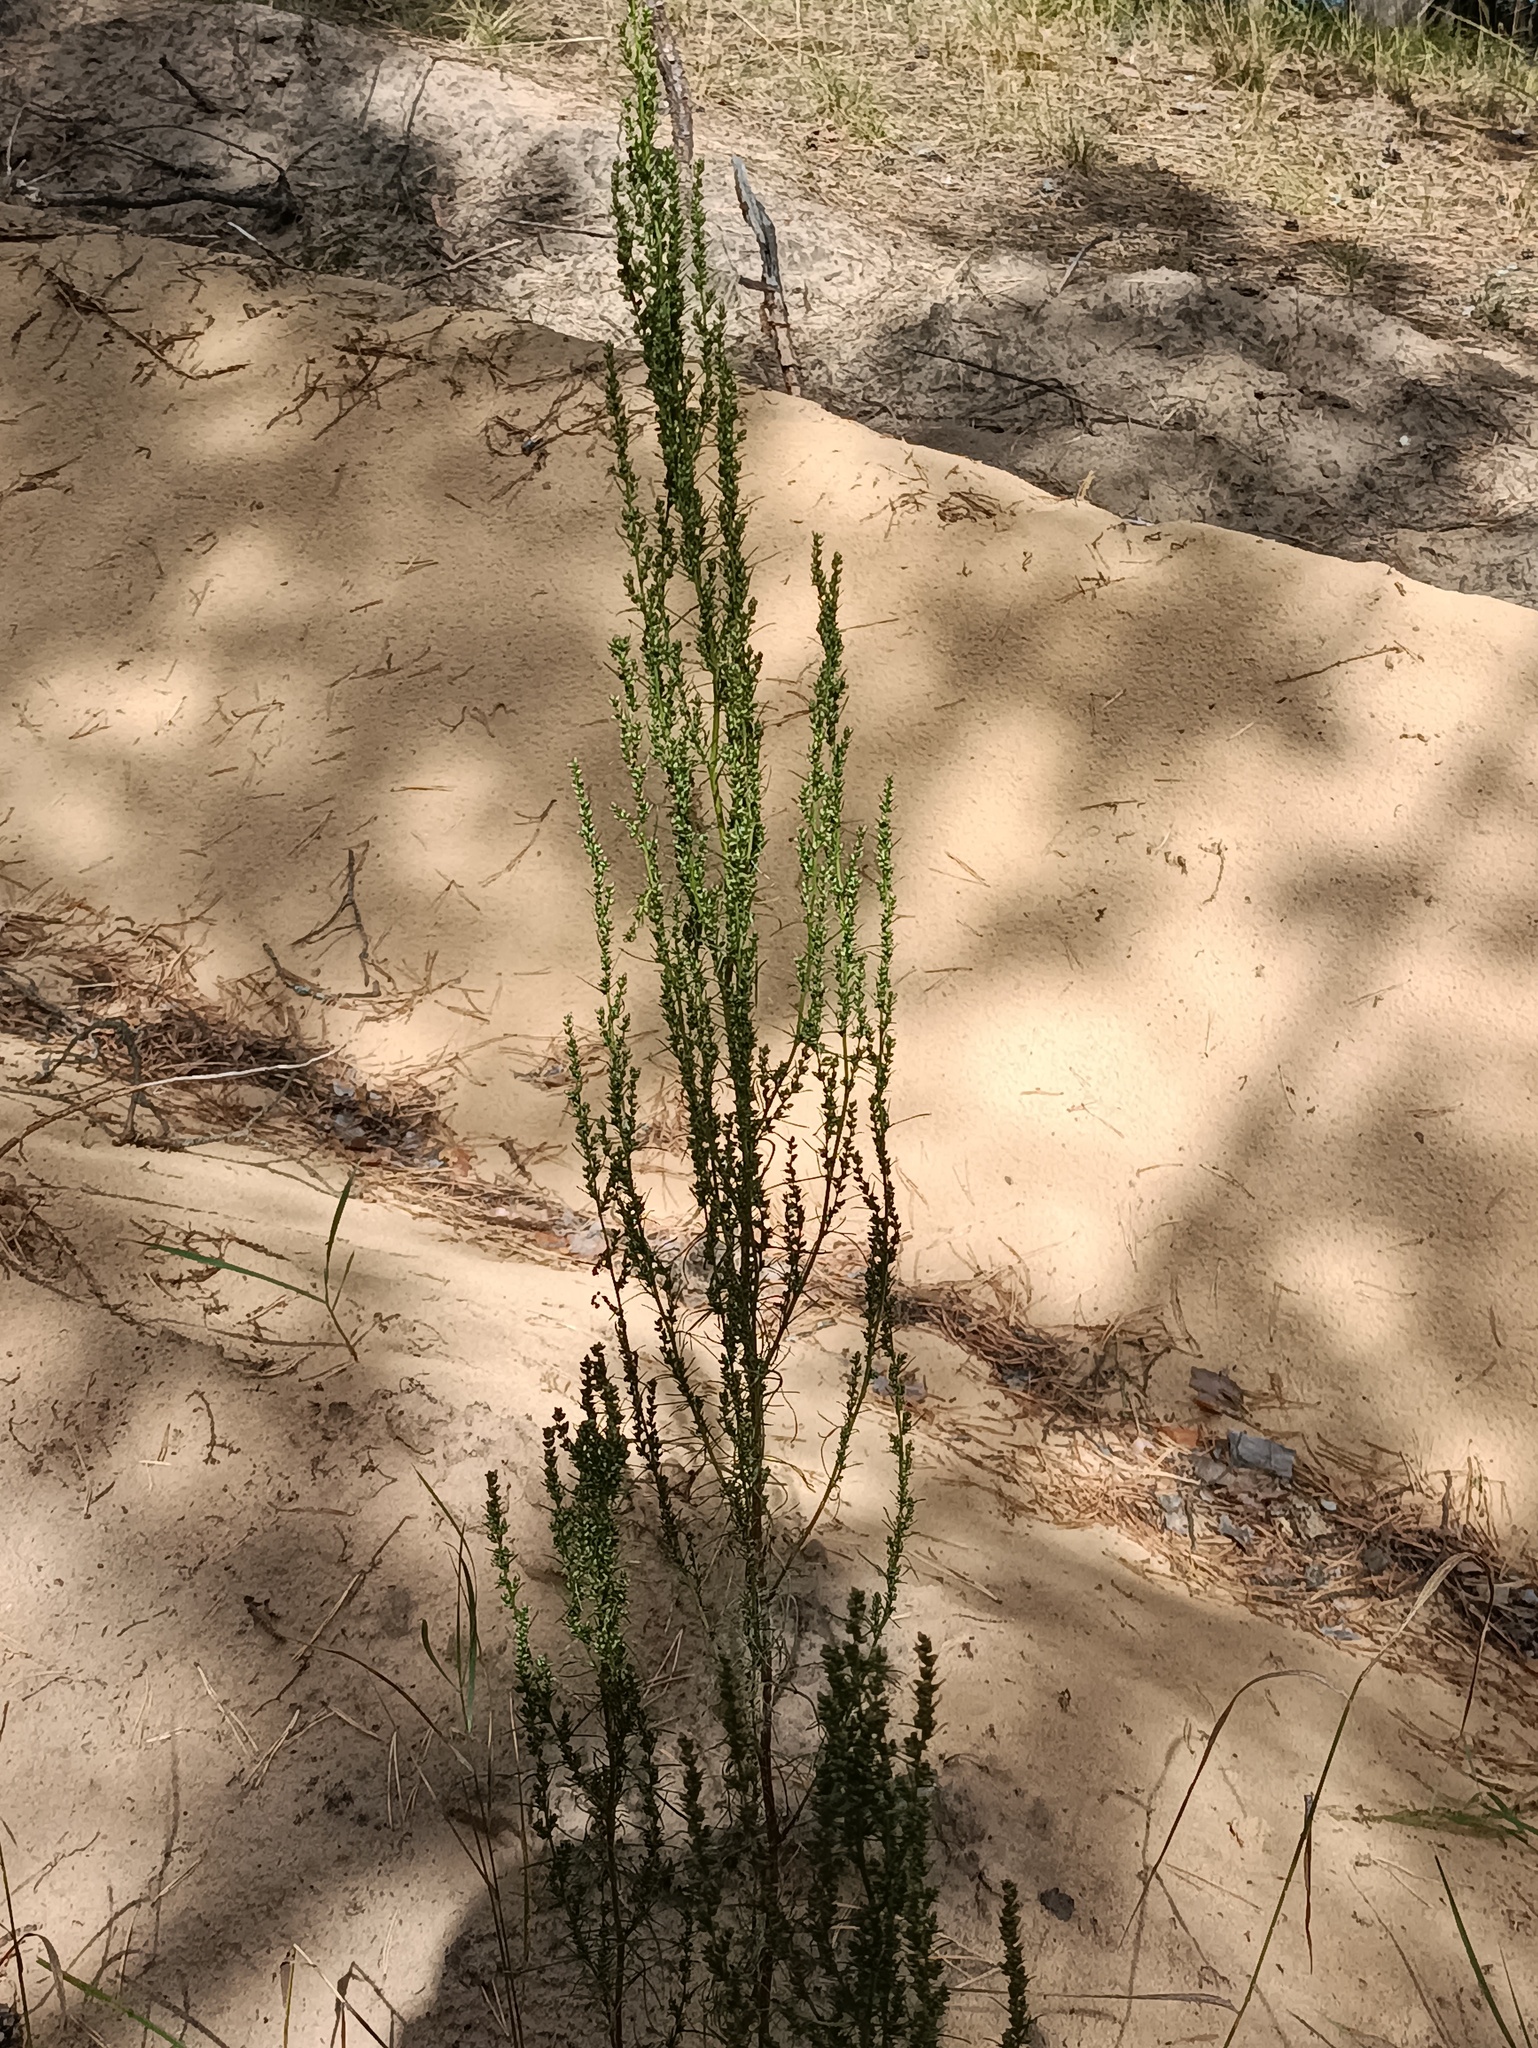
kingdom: Plantae
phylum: Tracheophyta
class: Magnoliopsida
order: Asterales
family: Asteraceae
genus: Artemisia
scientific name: Artemisia campestris
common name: Field wormwood
